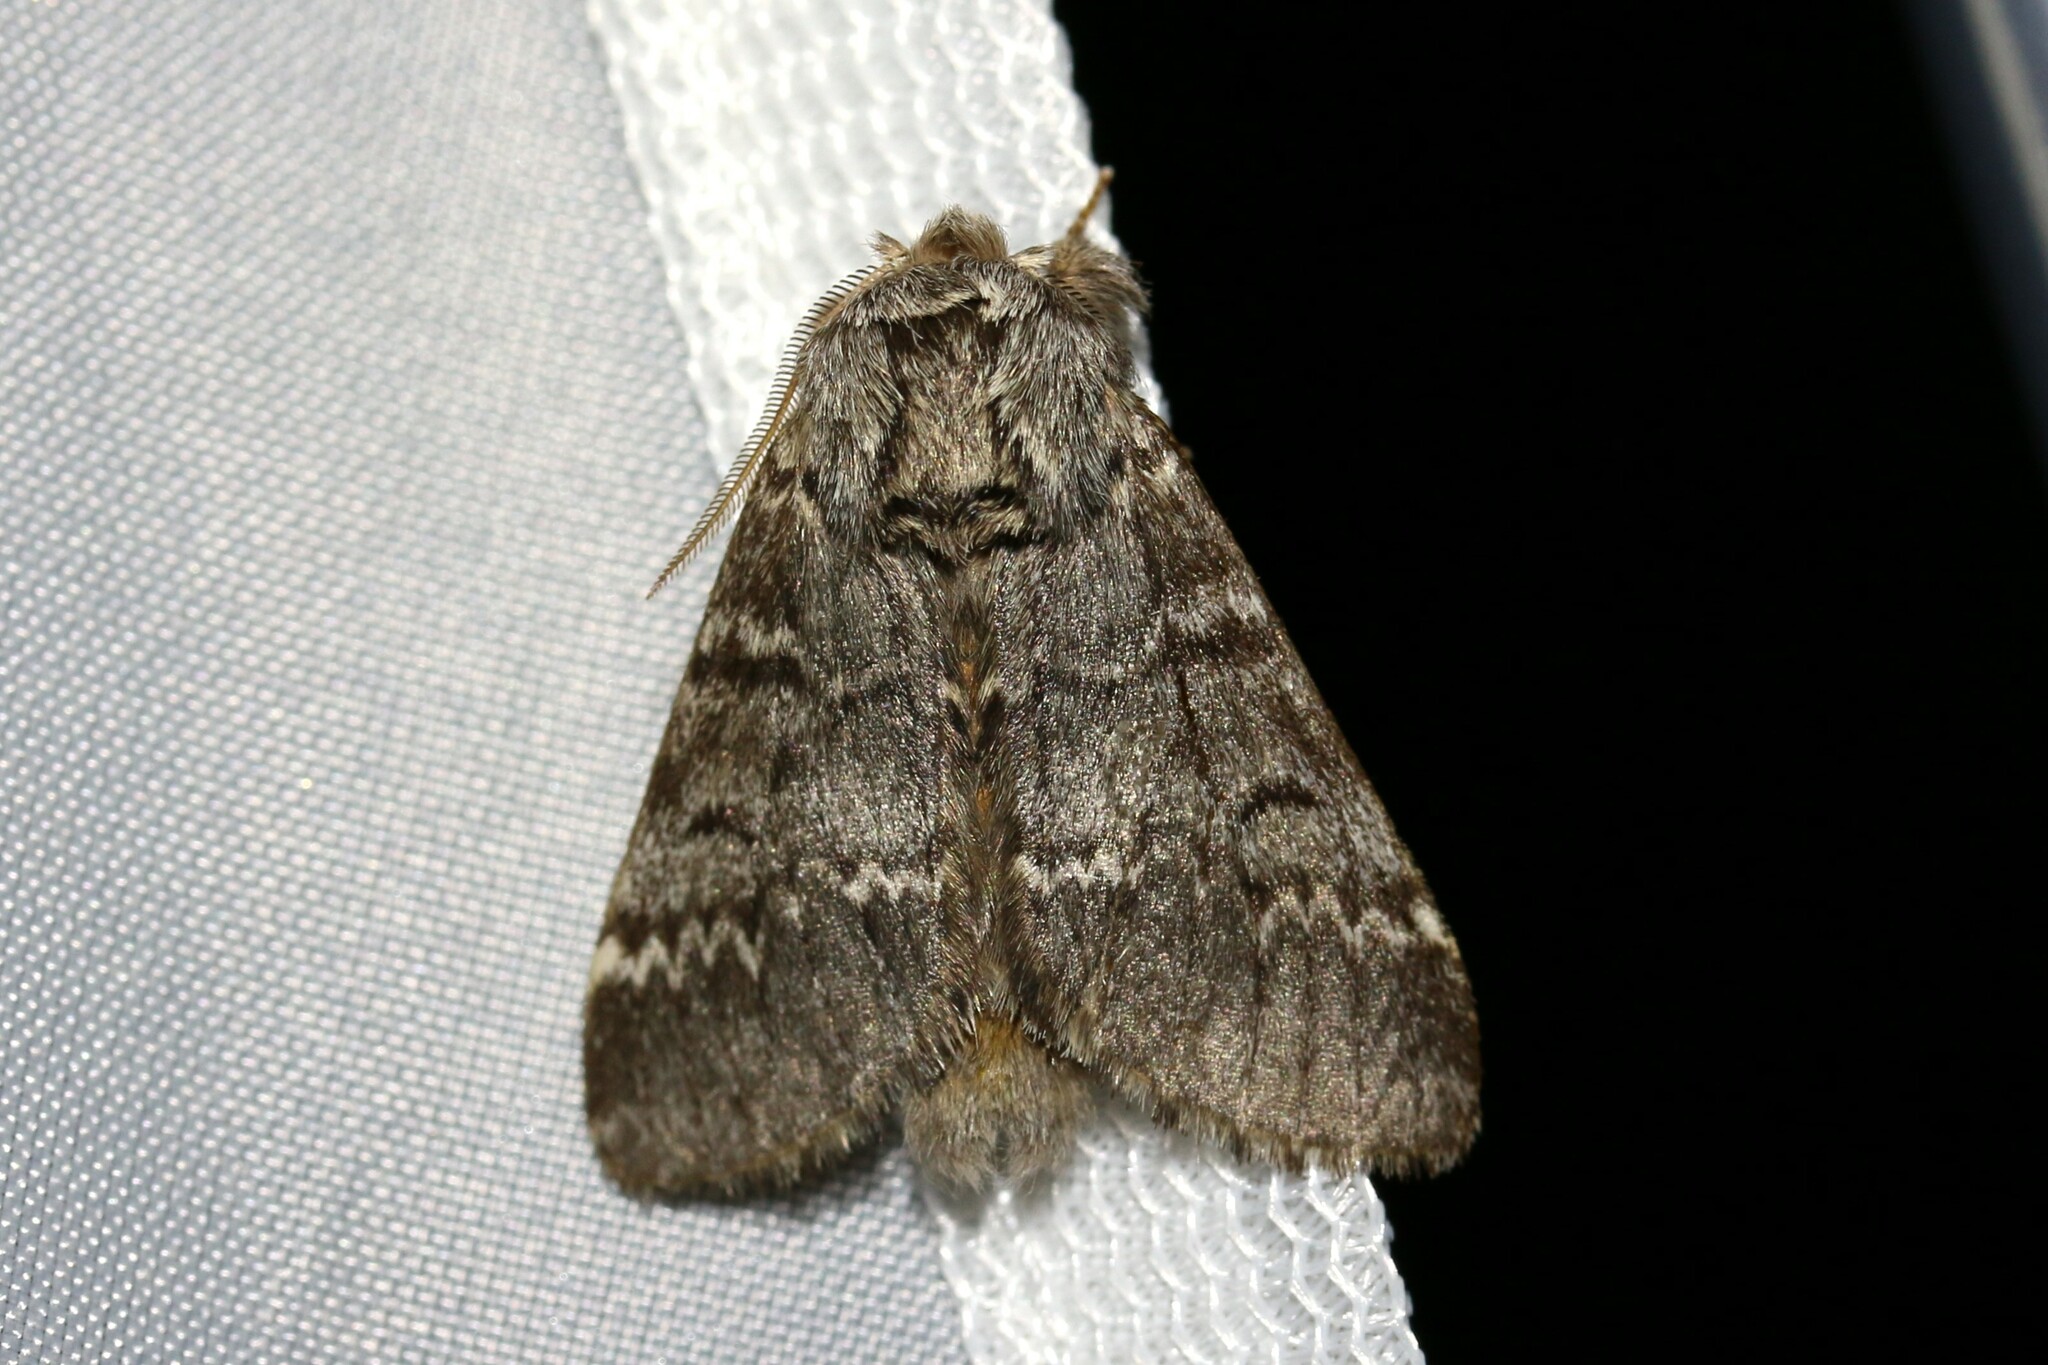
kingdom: Animalia
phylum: Arthropoda
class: Insecta
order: Lepidoptera
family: Notodontidae
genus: Drymonia
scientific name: Drymonia ruficornis
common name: Lunar marbled brown
